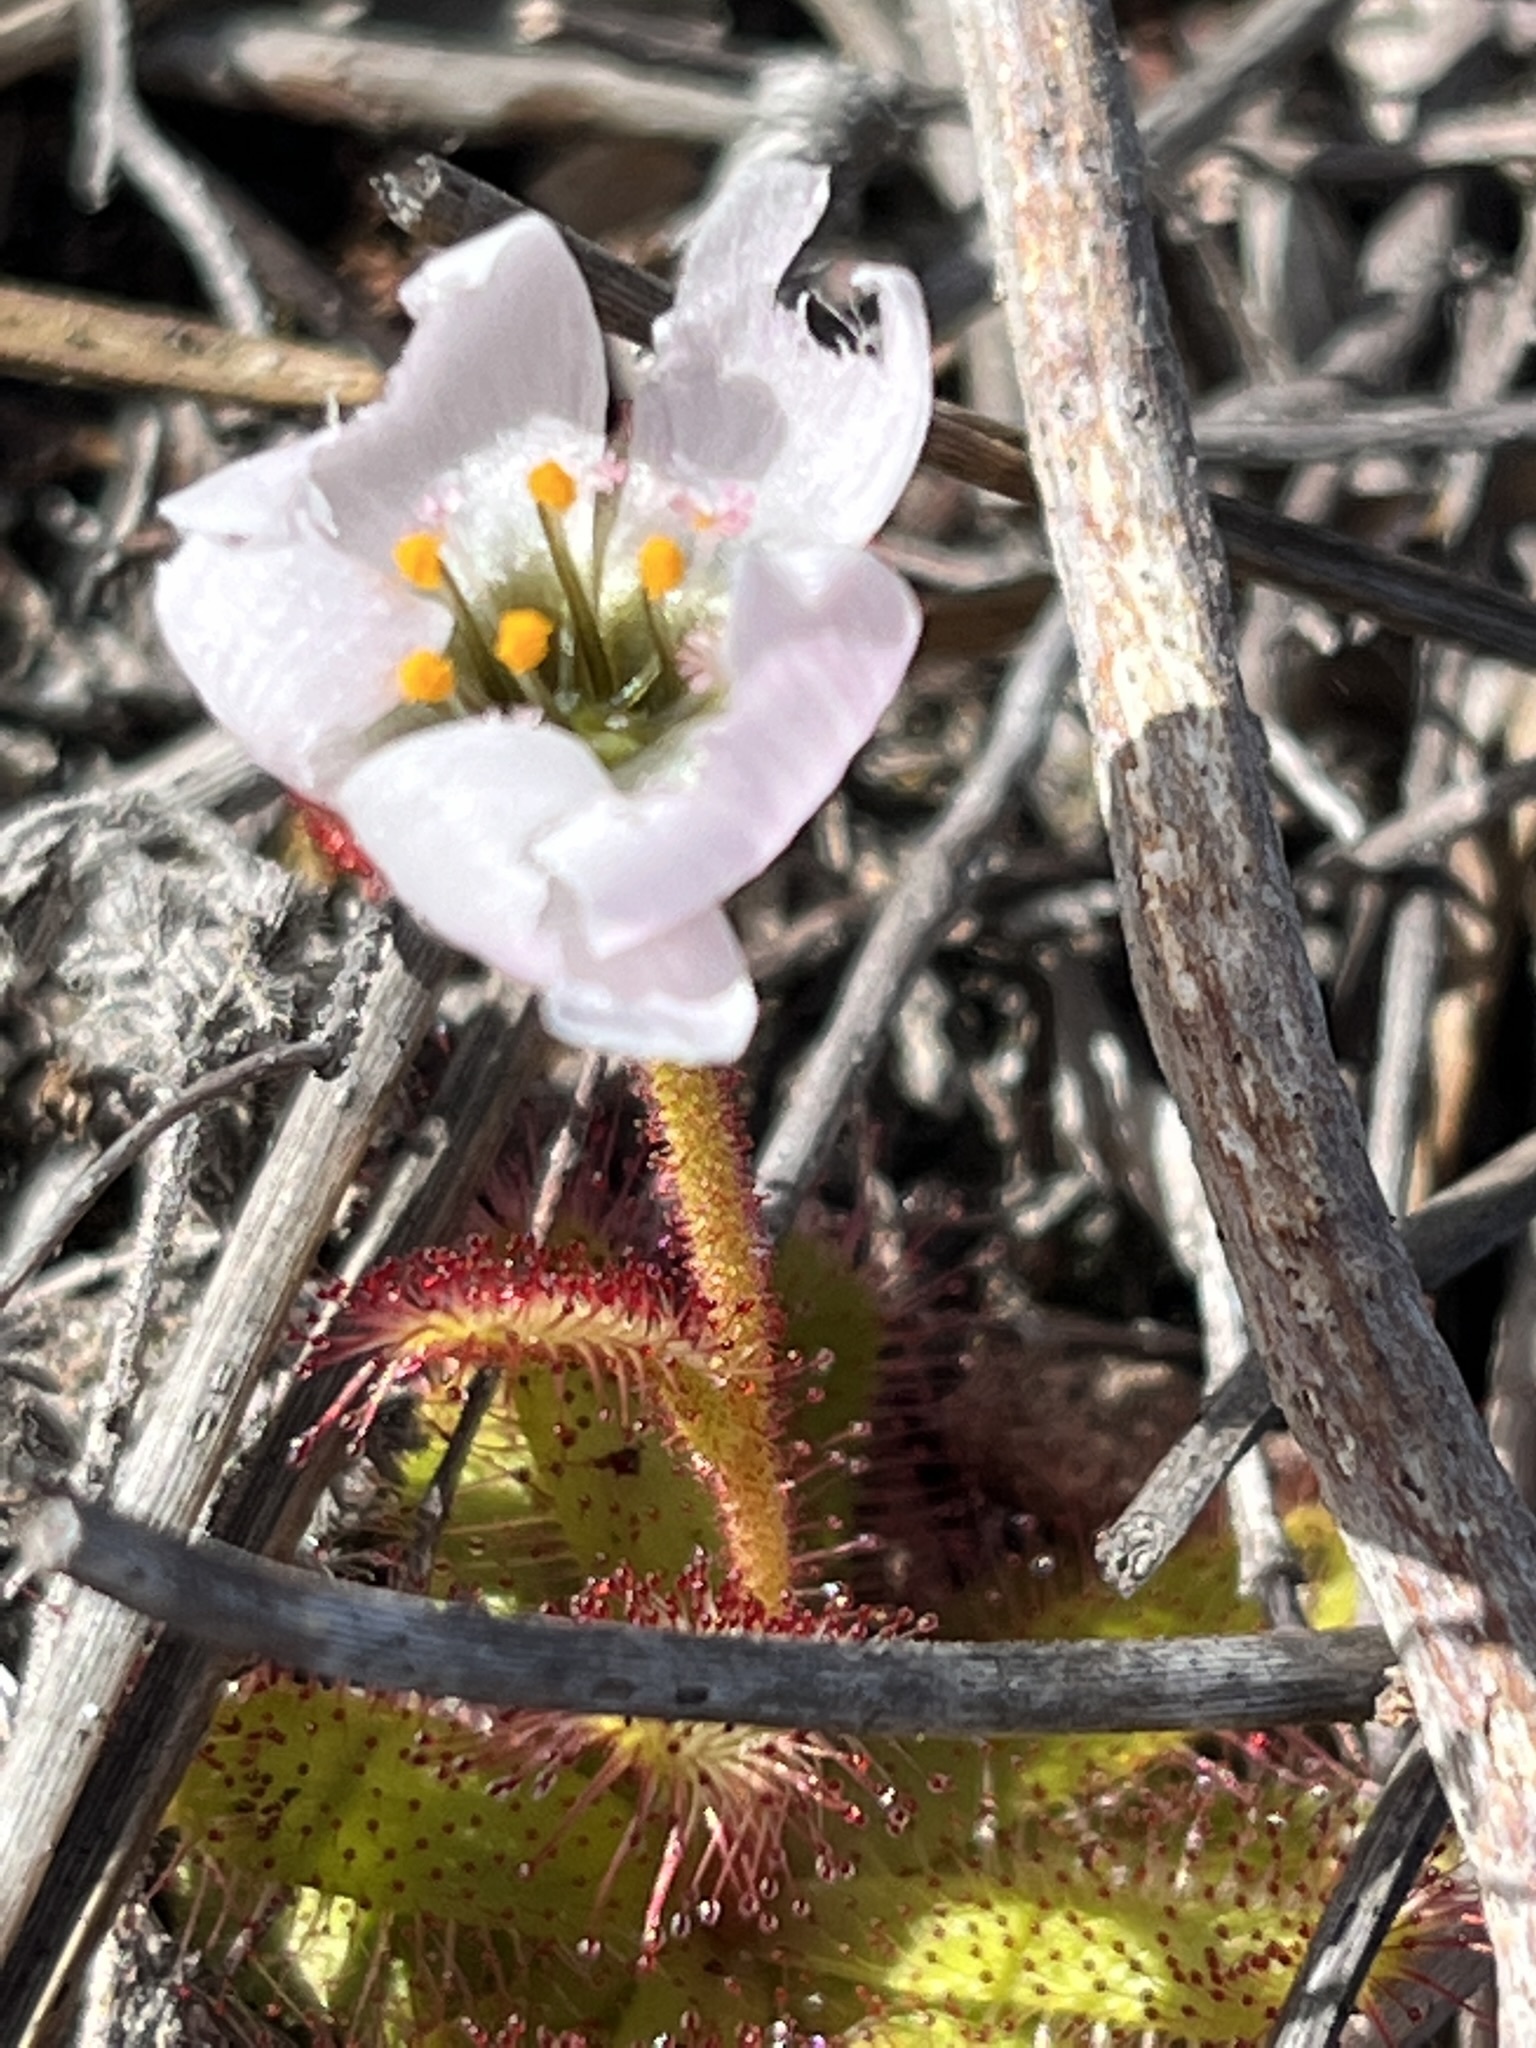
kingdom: Plantae
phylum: Tracheophyta
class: Magnoliopsida
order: Caryophyllales
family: Droseraceae
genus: Drosera
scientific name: Drosera cistiflora
